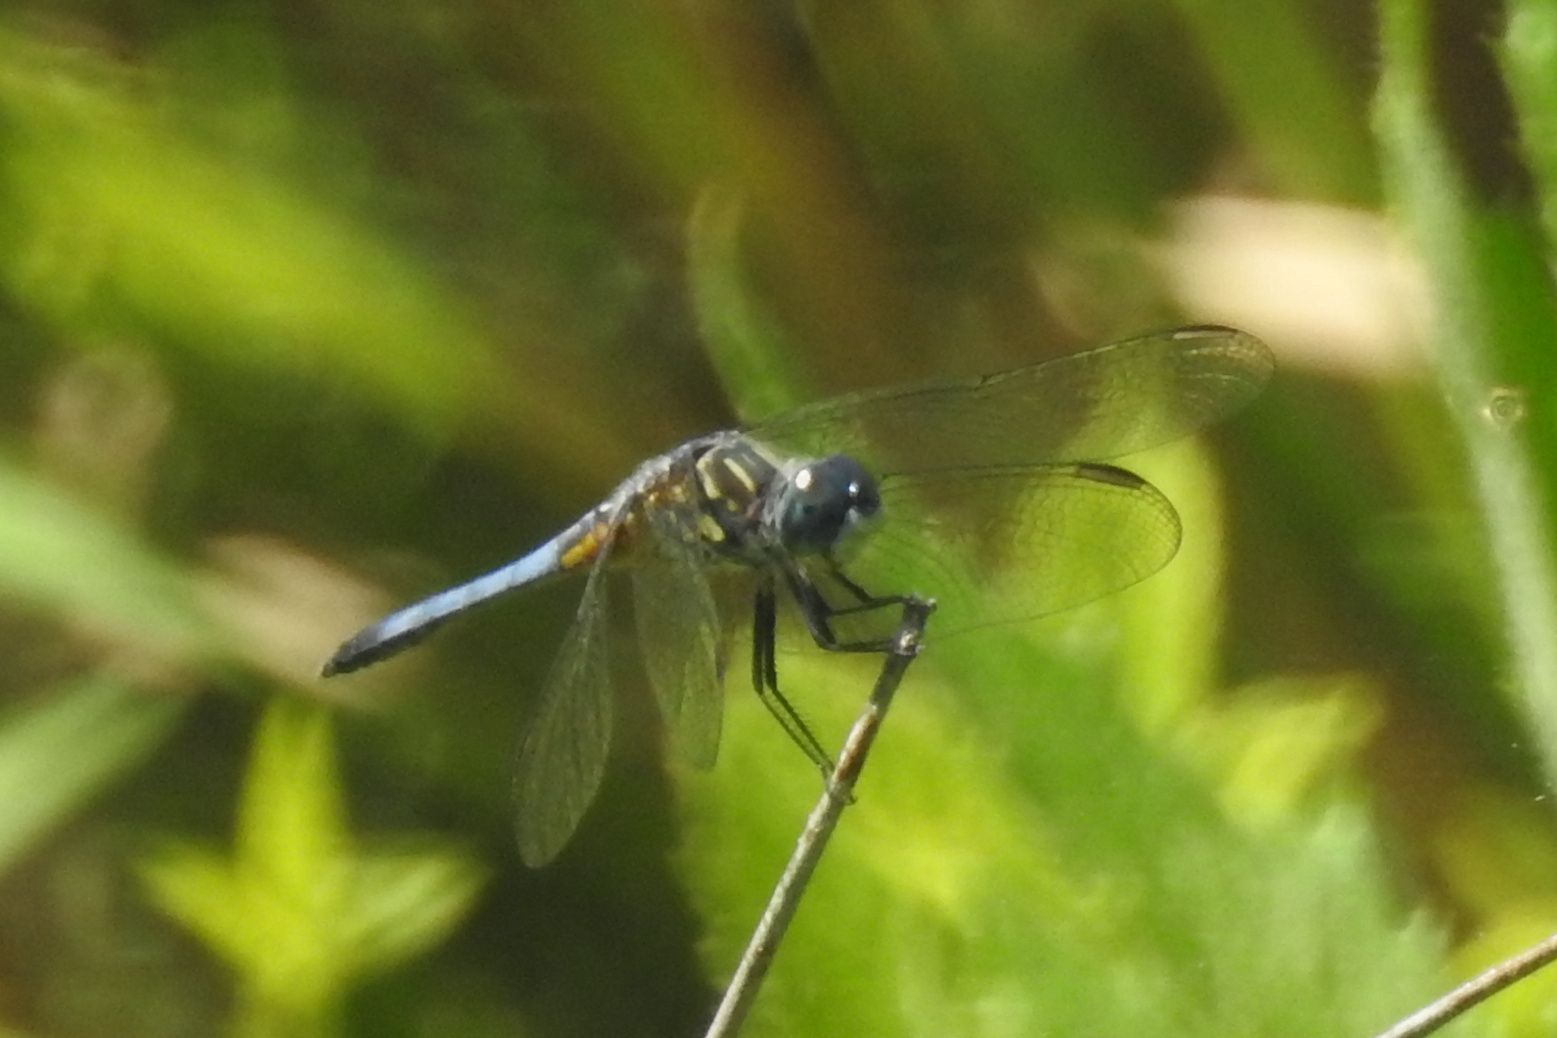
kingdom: Animalia
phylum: Arthropoda
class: Insecta
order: Odonata
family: Libellulidae
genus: Pachydiplax
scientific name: Pachydiplax longipennis
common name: Blue dasher
